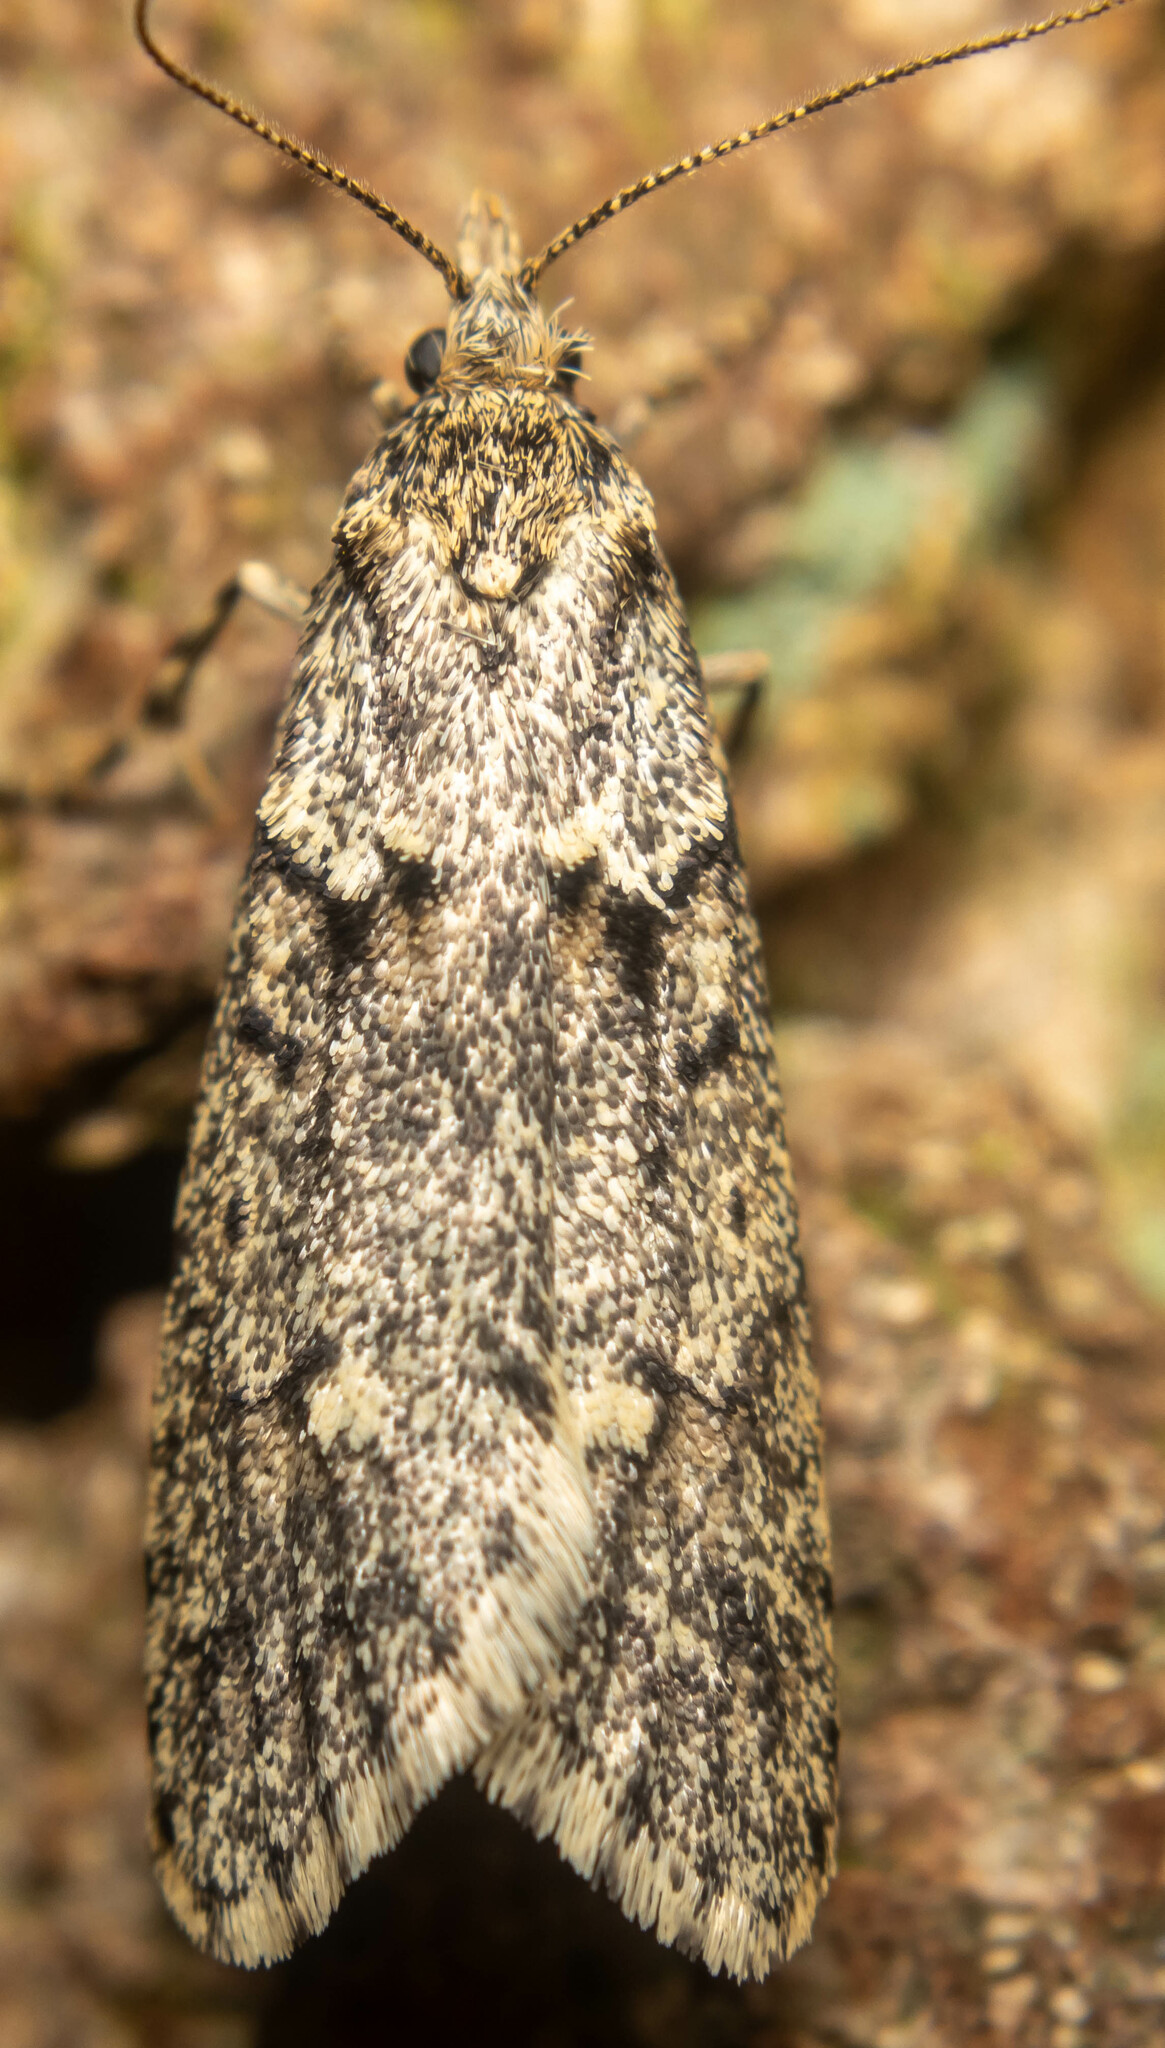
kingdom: Animalia
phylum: Arthropoda
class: Insecta
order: Lepidoptera
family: Lypusidae
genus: Diurnea
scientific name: Diurnea fagella
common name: March tubic
